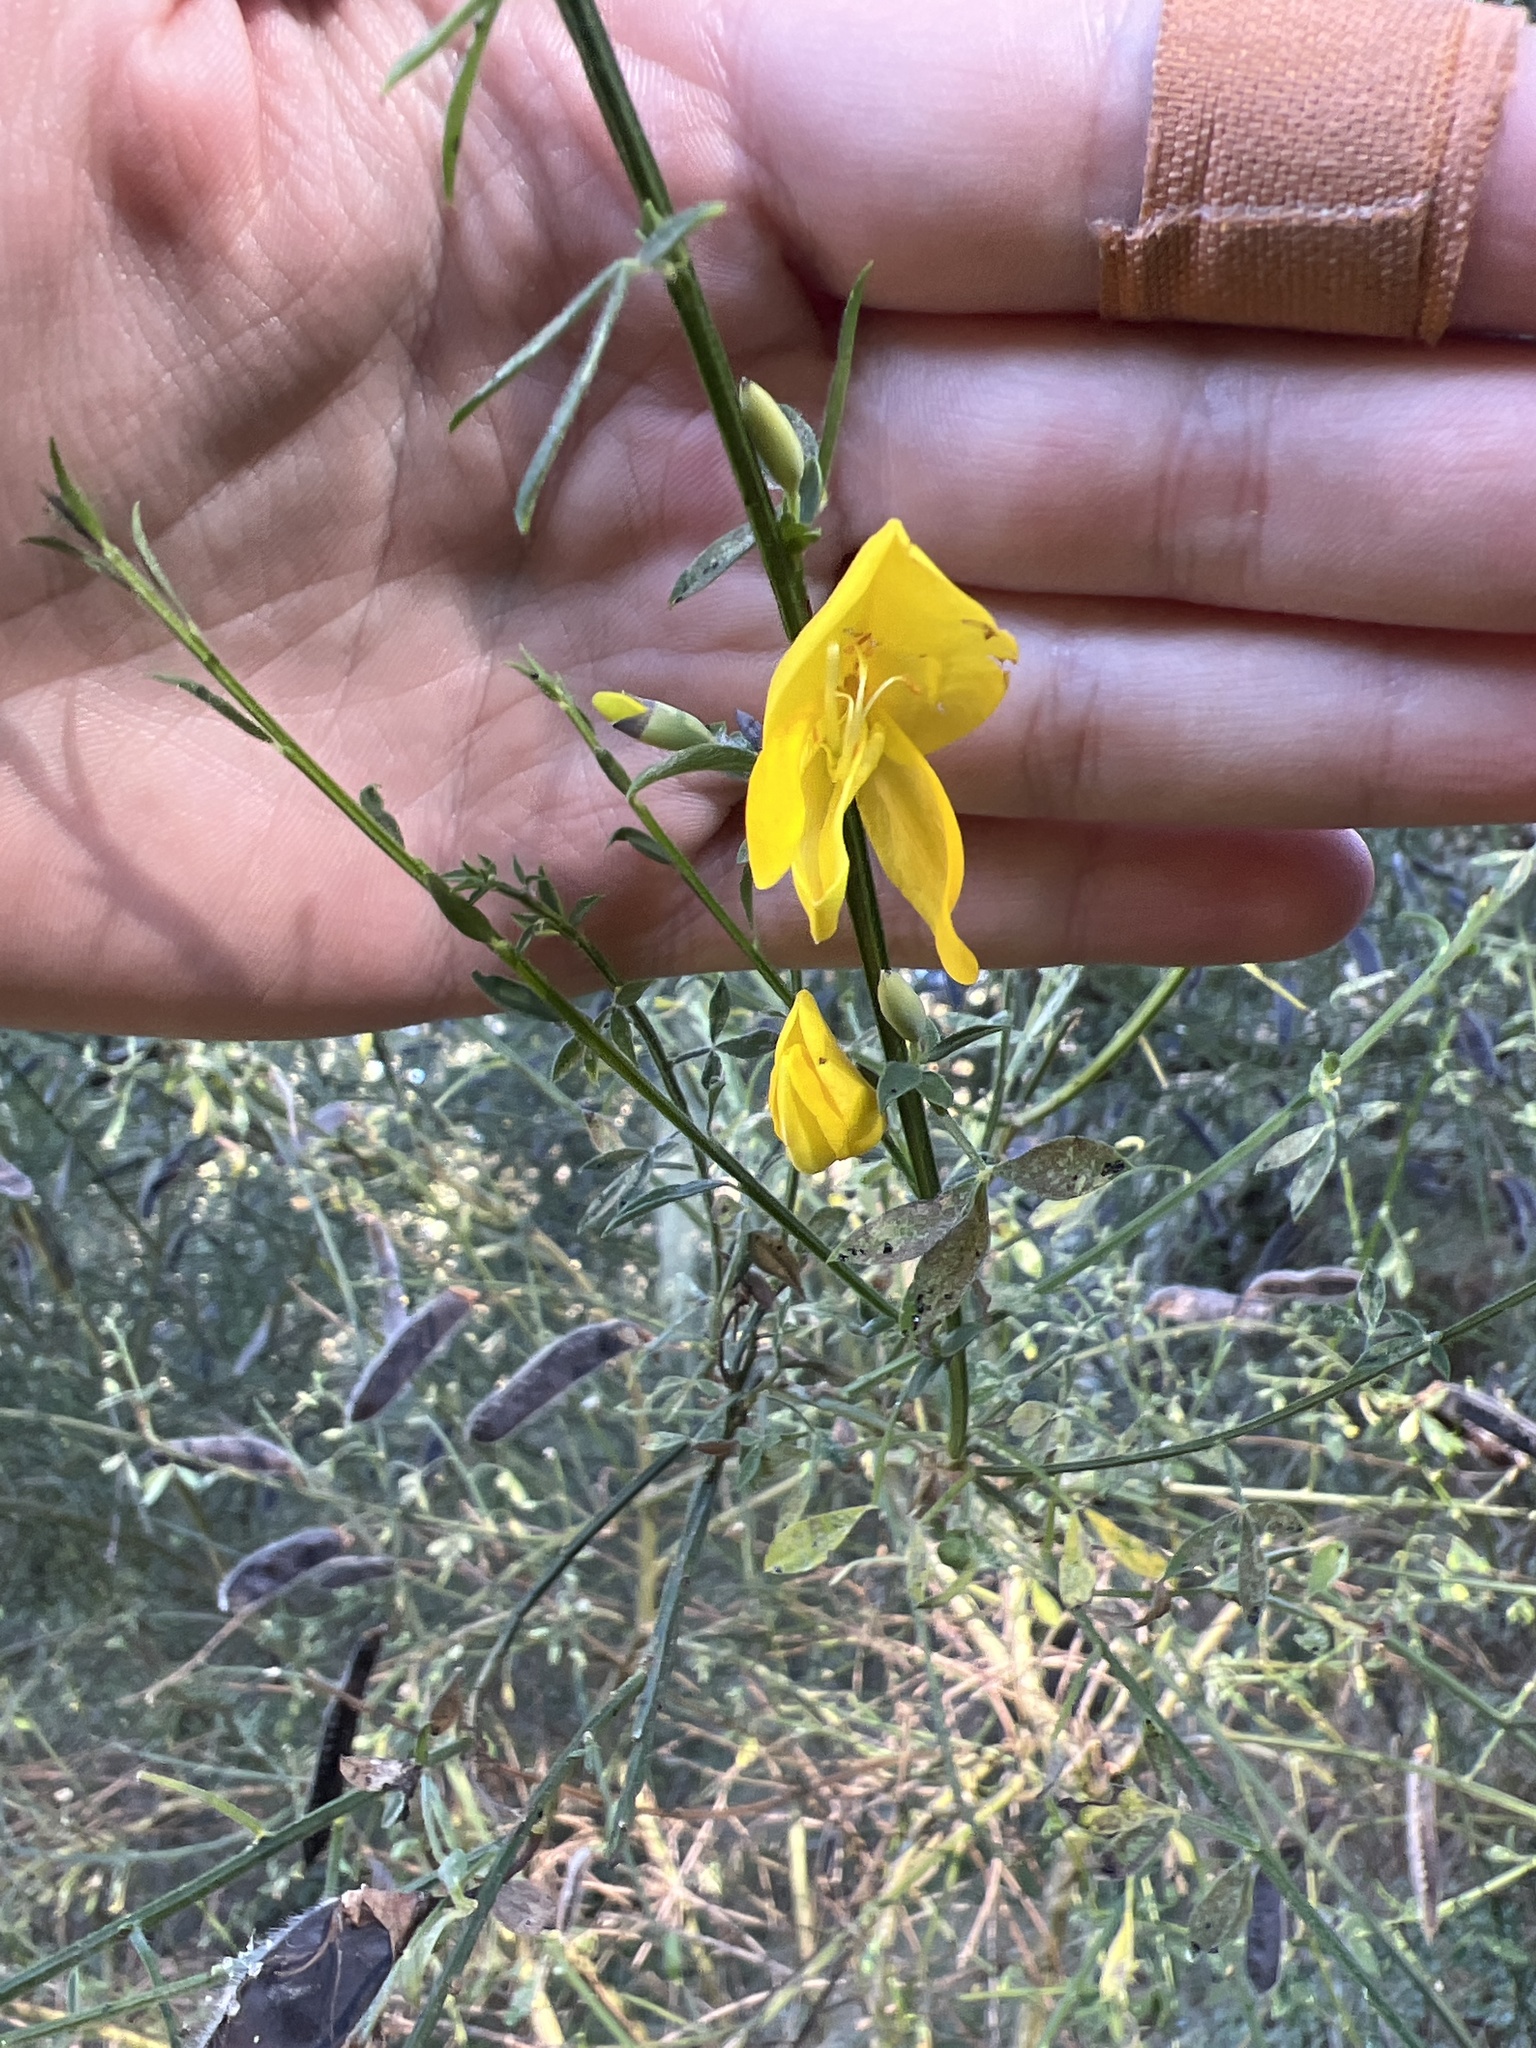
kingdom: Plantae
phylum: Tracheophyta
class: Magnoliopsida
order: Fabales
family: Fabaceae
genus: Cytisus
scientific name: Cytisus scoparius
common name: Scotch broom
